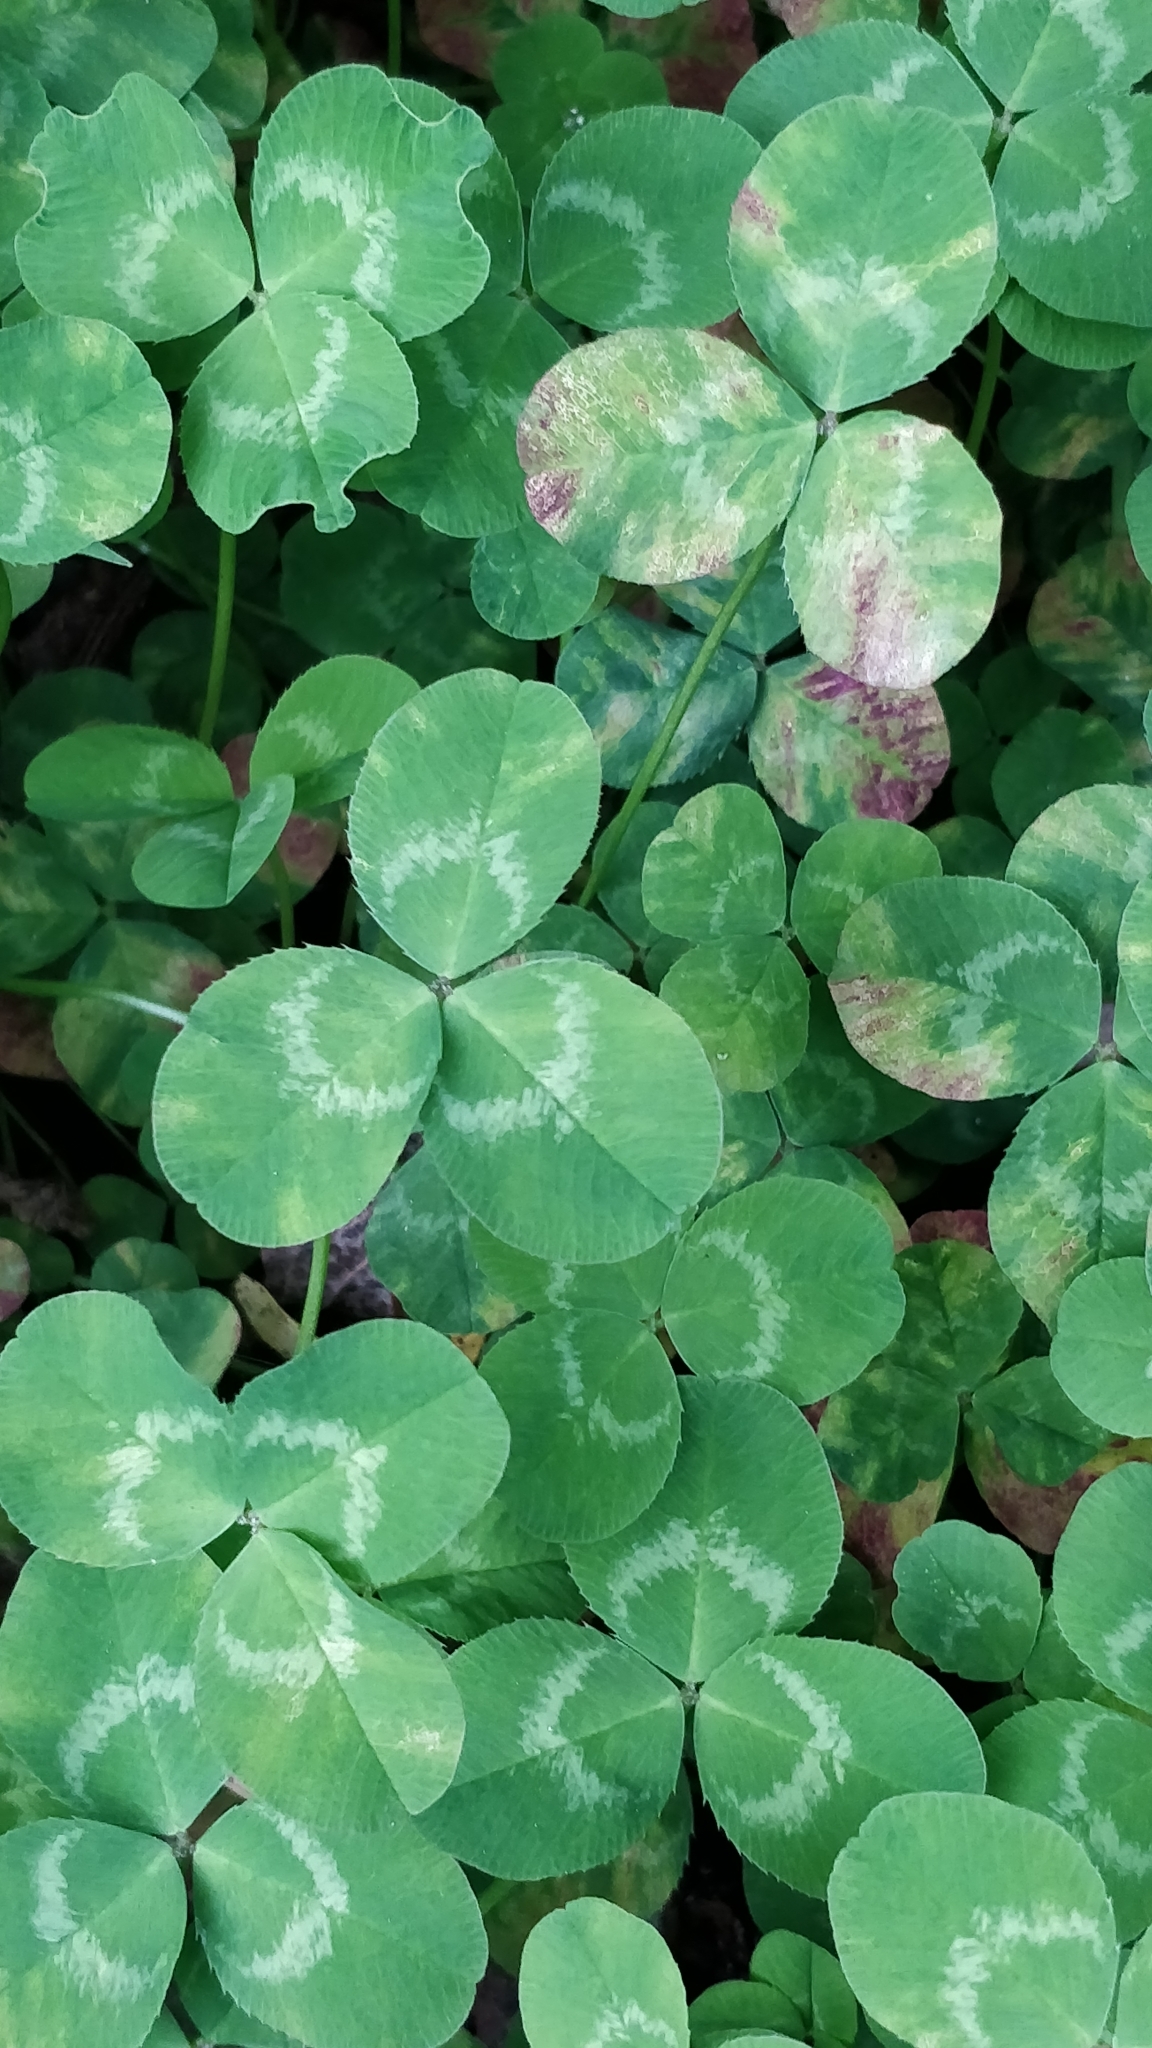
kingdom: Plantae
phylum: Tracheophyta
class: Magnoliopsida
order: Fabales
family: Fabaceae
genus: Trifolium
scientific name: Trifolium repens
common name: White clover
